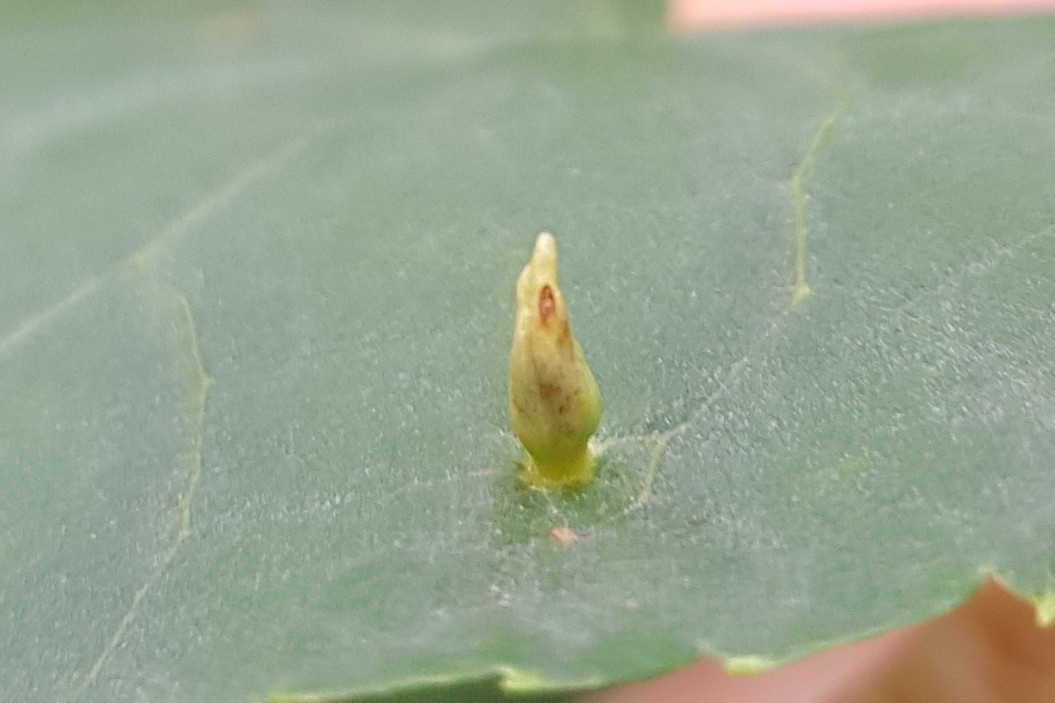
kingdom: Animalia
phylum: Arthropoda
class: Arachnida
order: Trombidiformes
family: Eriophyidae
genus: Eriophyes
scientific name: Eriophyes tiliae
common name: Red nail gall mite
